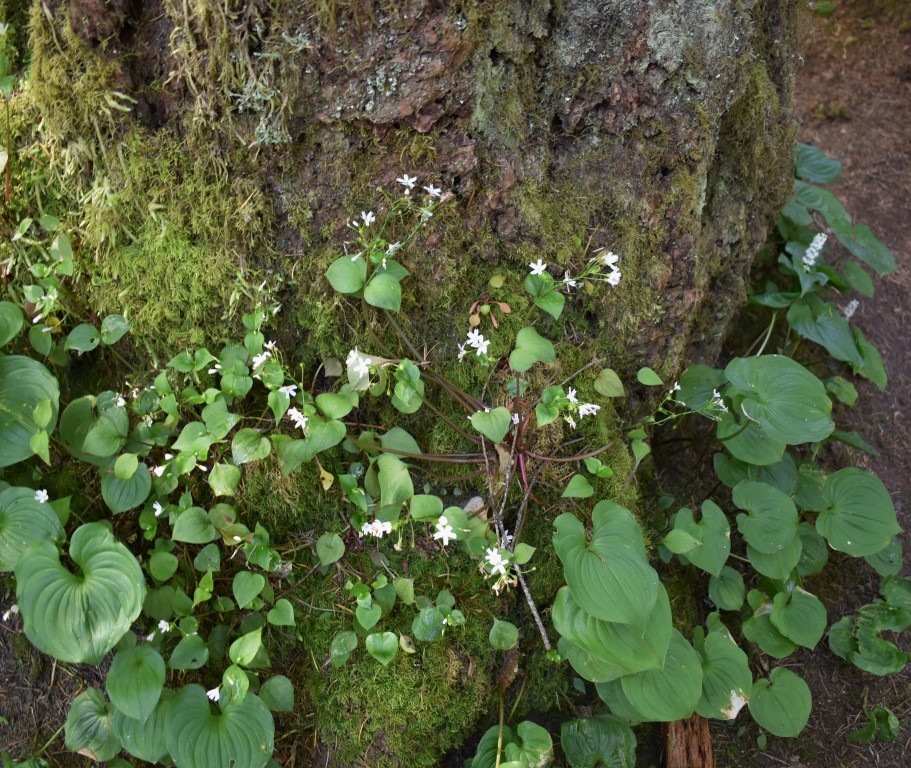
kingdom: Plantae
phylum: Tracheophyta
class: Magnoliopsida
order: Caryophyllales
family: Montiaceae
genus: Claytonia
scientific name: Claytonia sibirica
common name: Pink purslane
